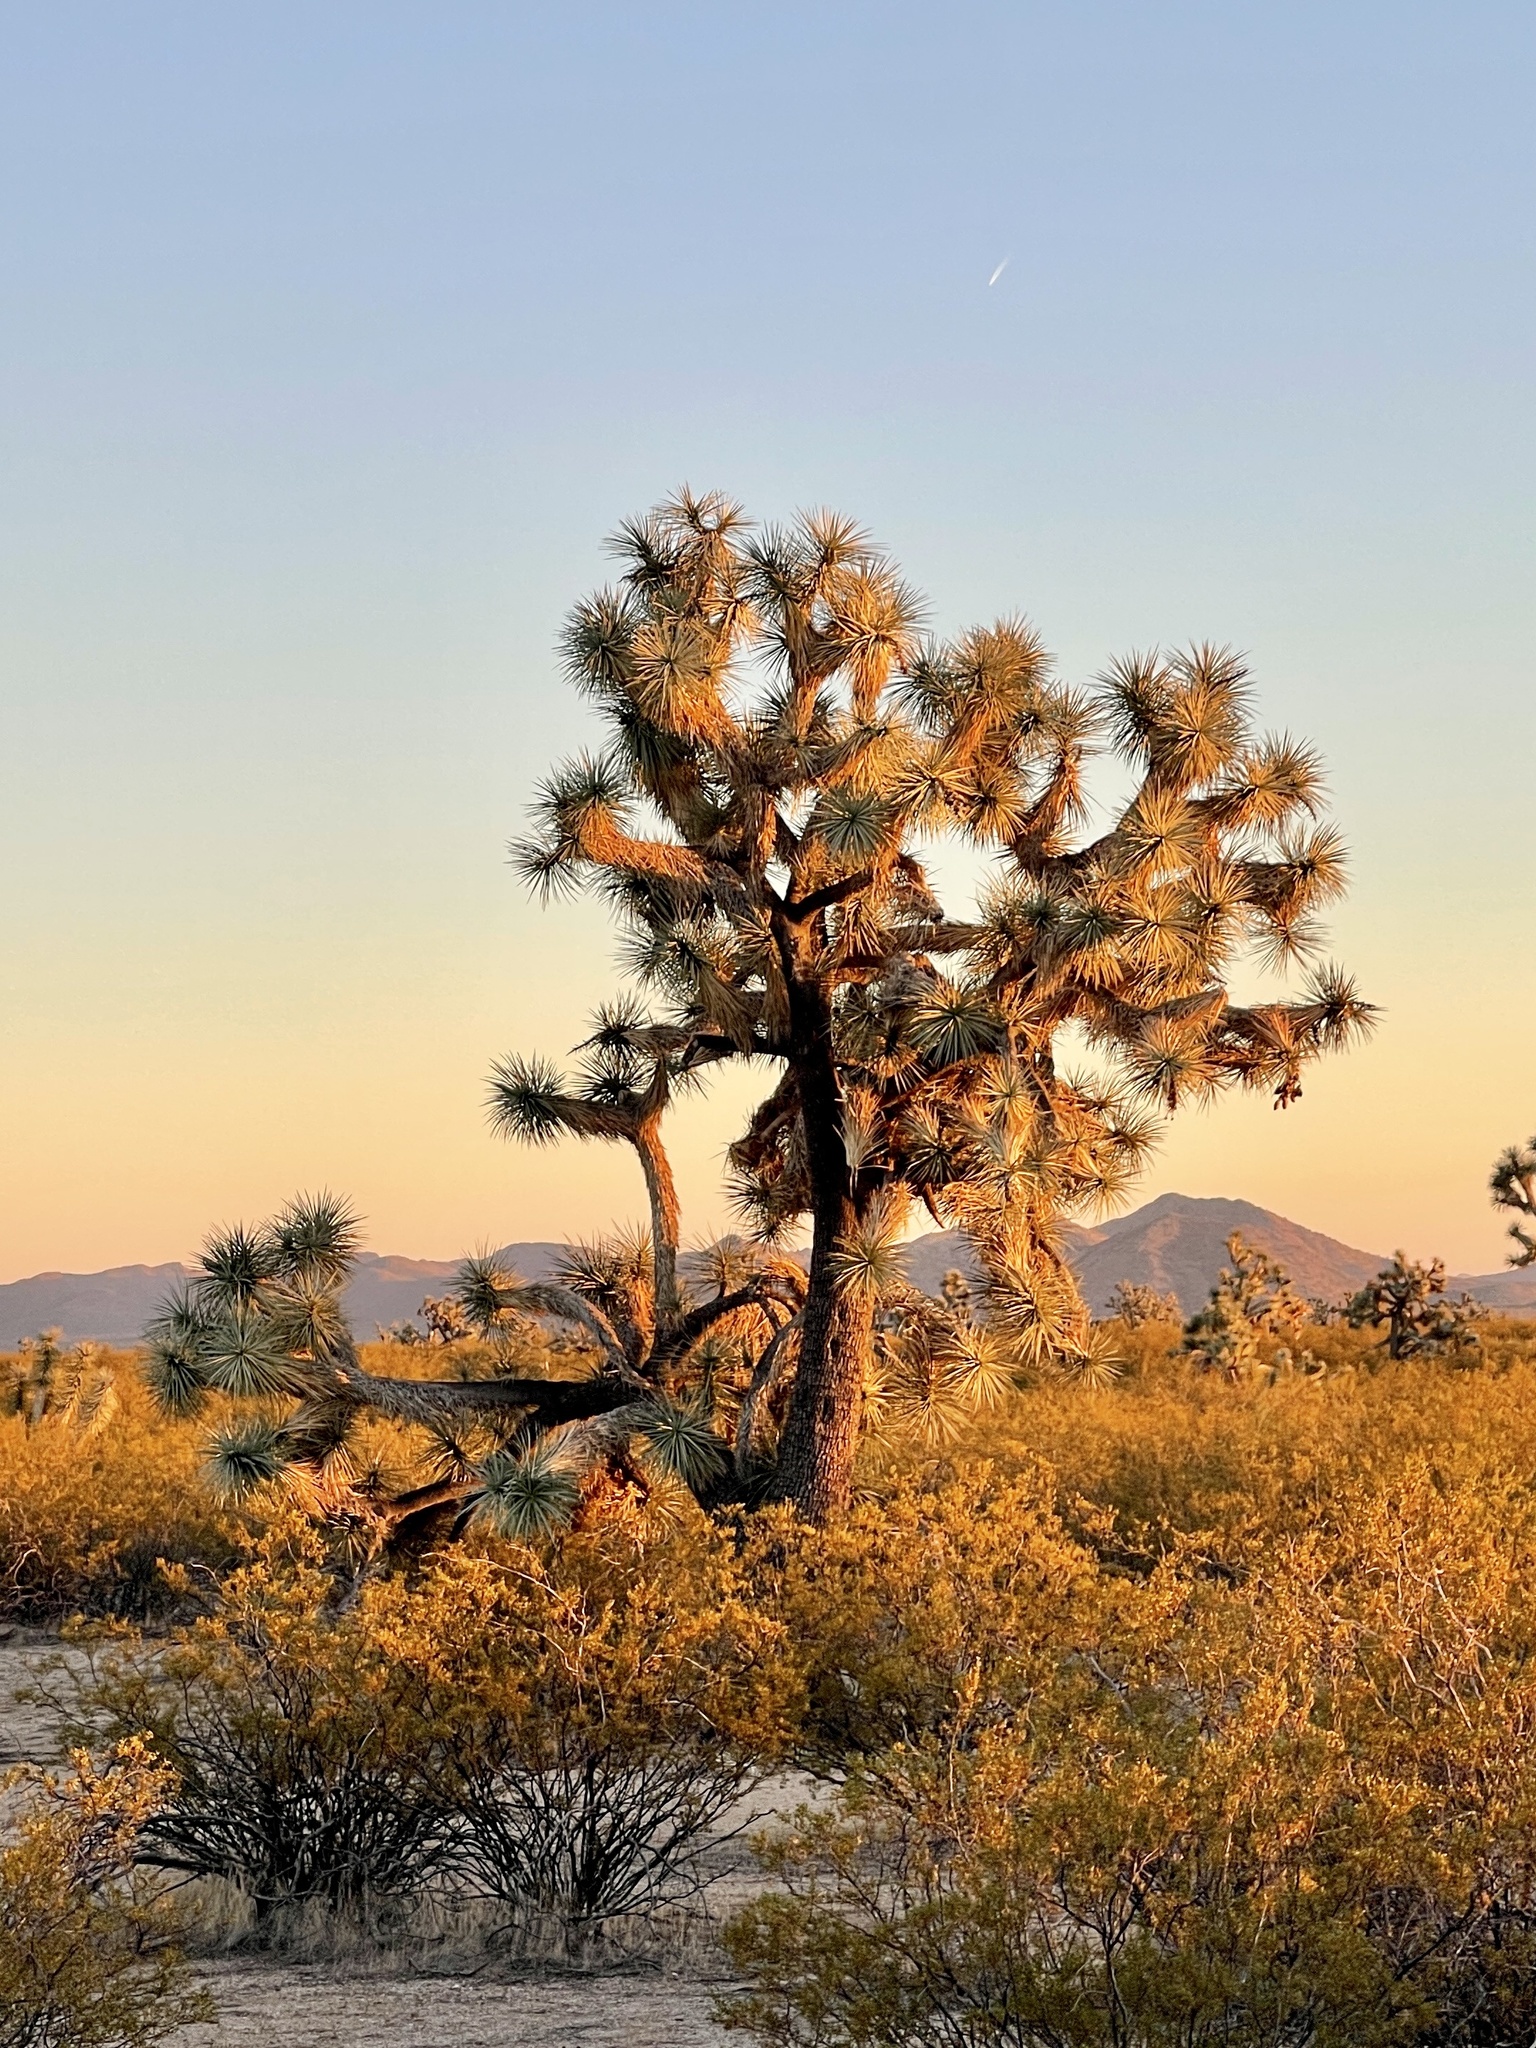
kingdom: Plantae
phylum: Tracheophyta
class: Liliopsida
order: Asparagales
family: Asparagaceae
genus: Yucca
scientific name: Yucca brevifolia
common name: Joshua tree
